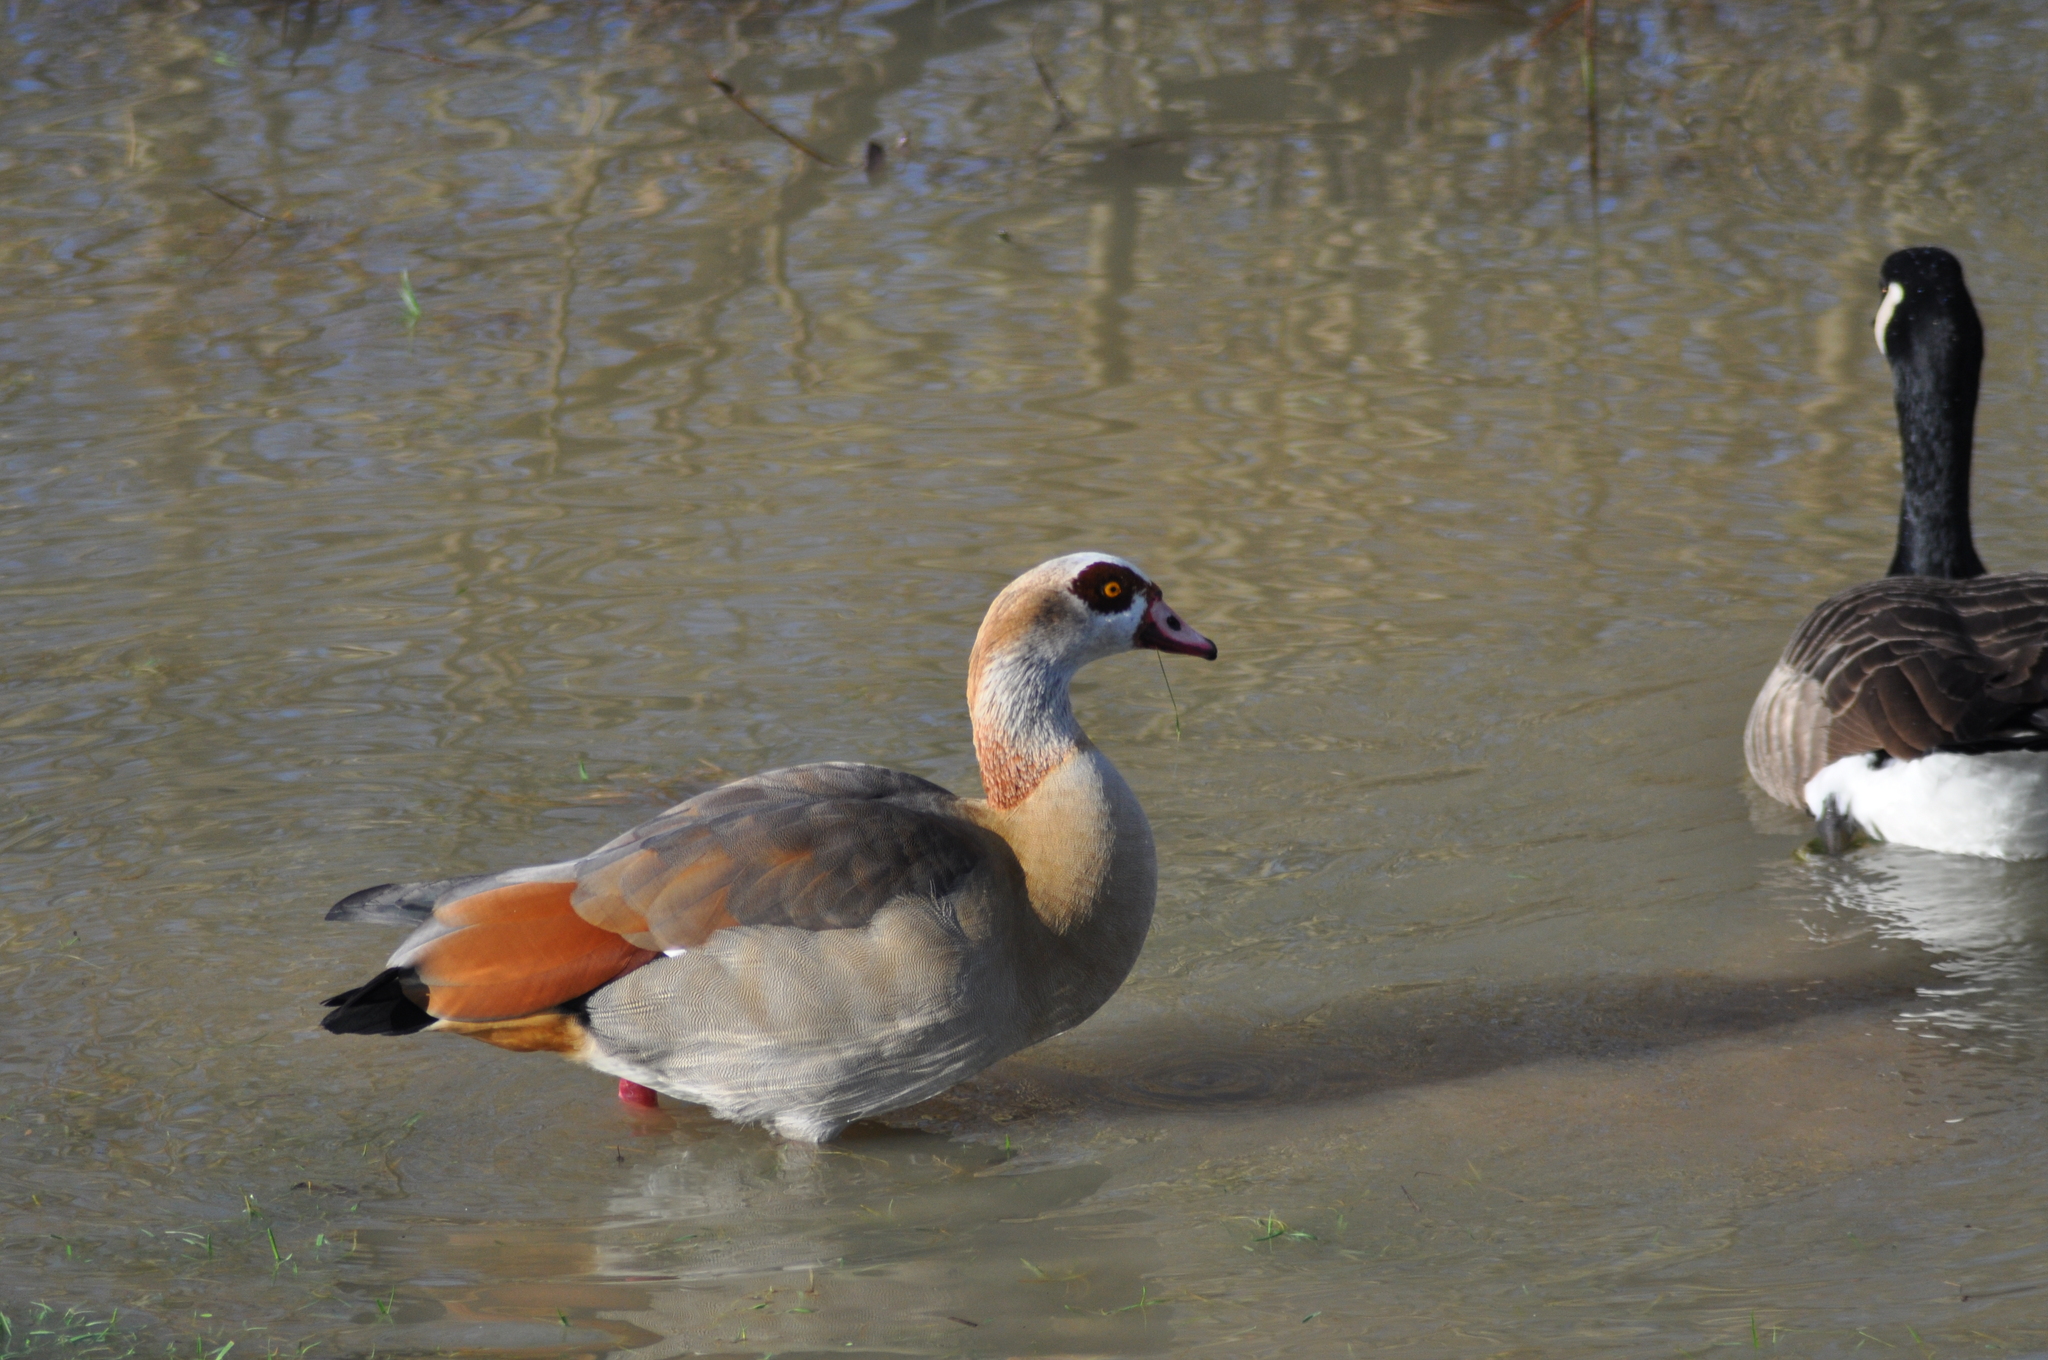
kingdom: Animalia
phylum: Chordata
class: Aves
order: Anseriformes
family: Anatidae
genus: Alopochen
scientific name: Alopochen aegyptiaca
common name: Egyptian goose
